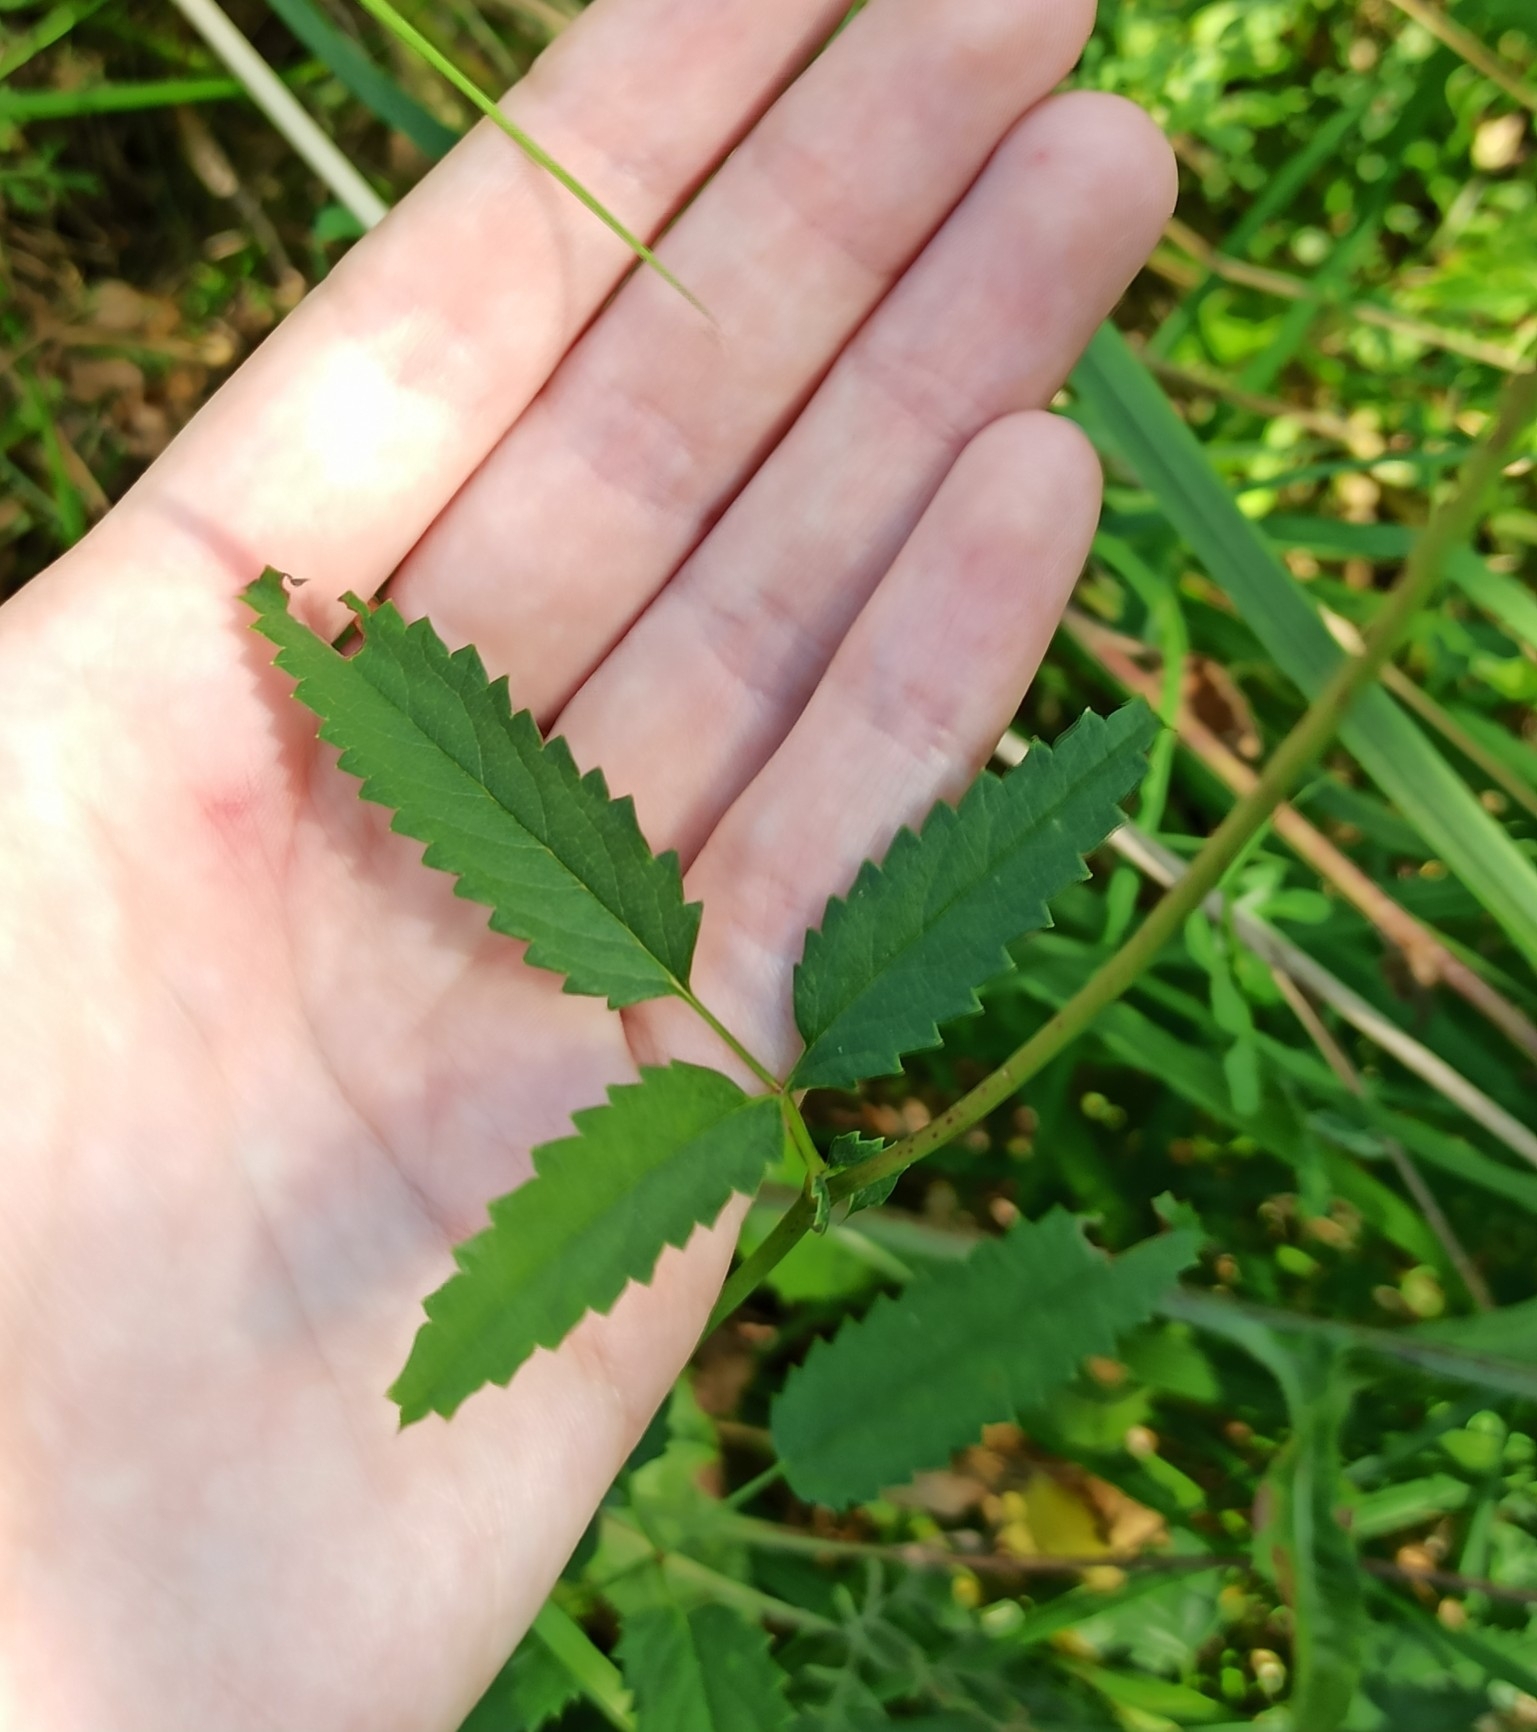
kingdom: Plantae
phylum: Tracheophyta
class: Magnoliopsida
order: Rosales
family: Rosaceae
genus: Sanguisorba
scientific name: Sanguisorba officinalis
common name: Great burnet
